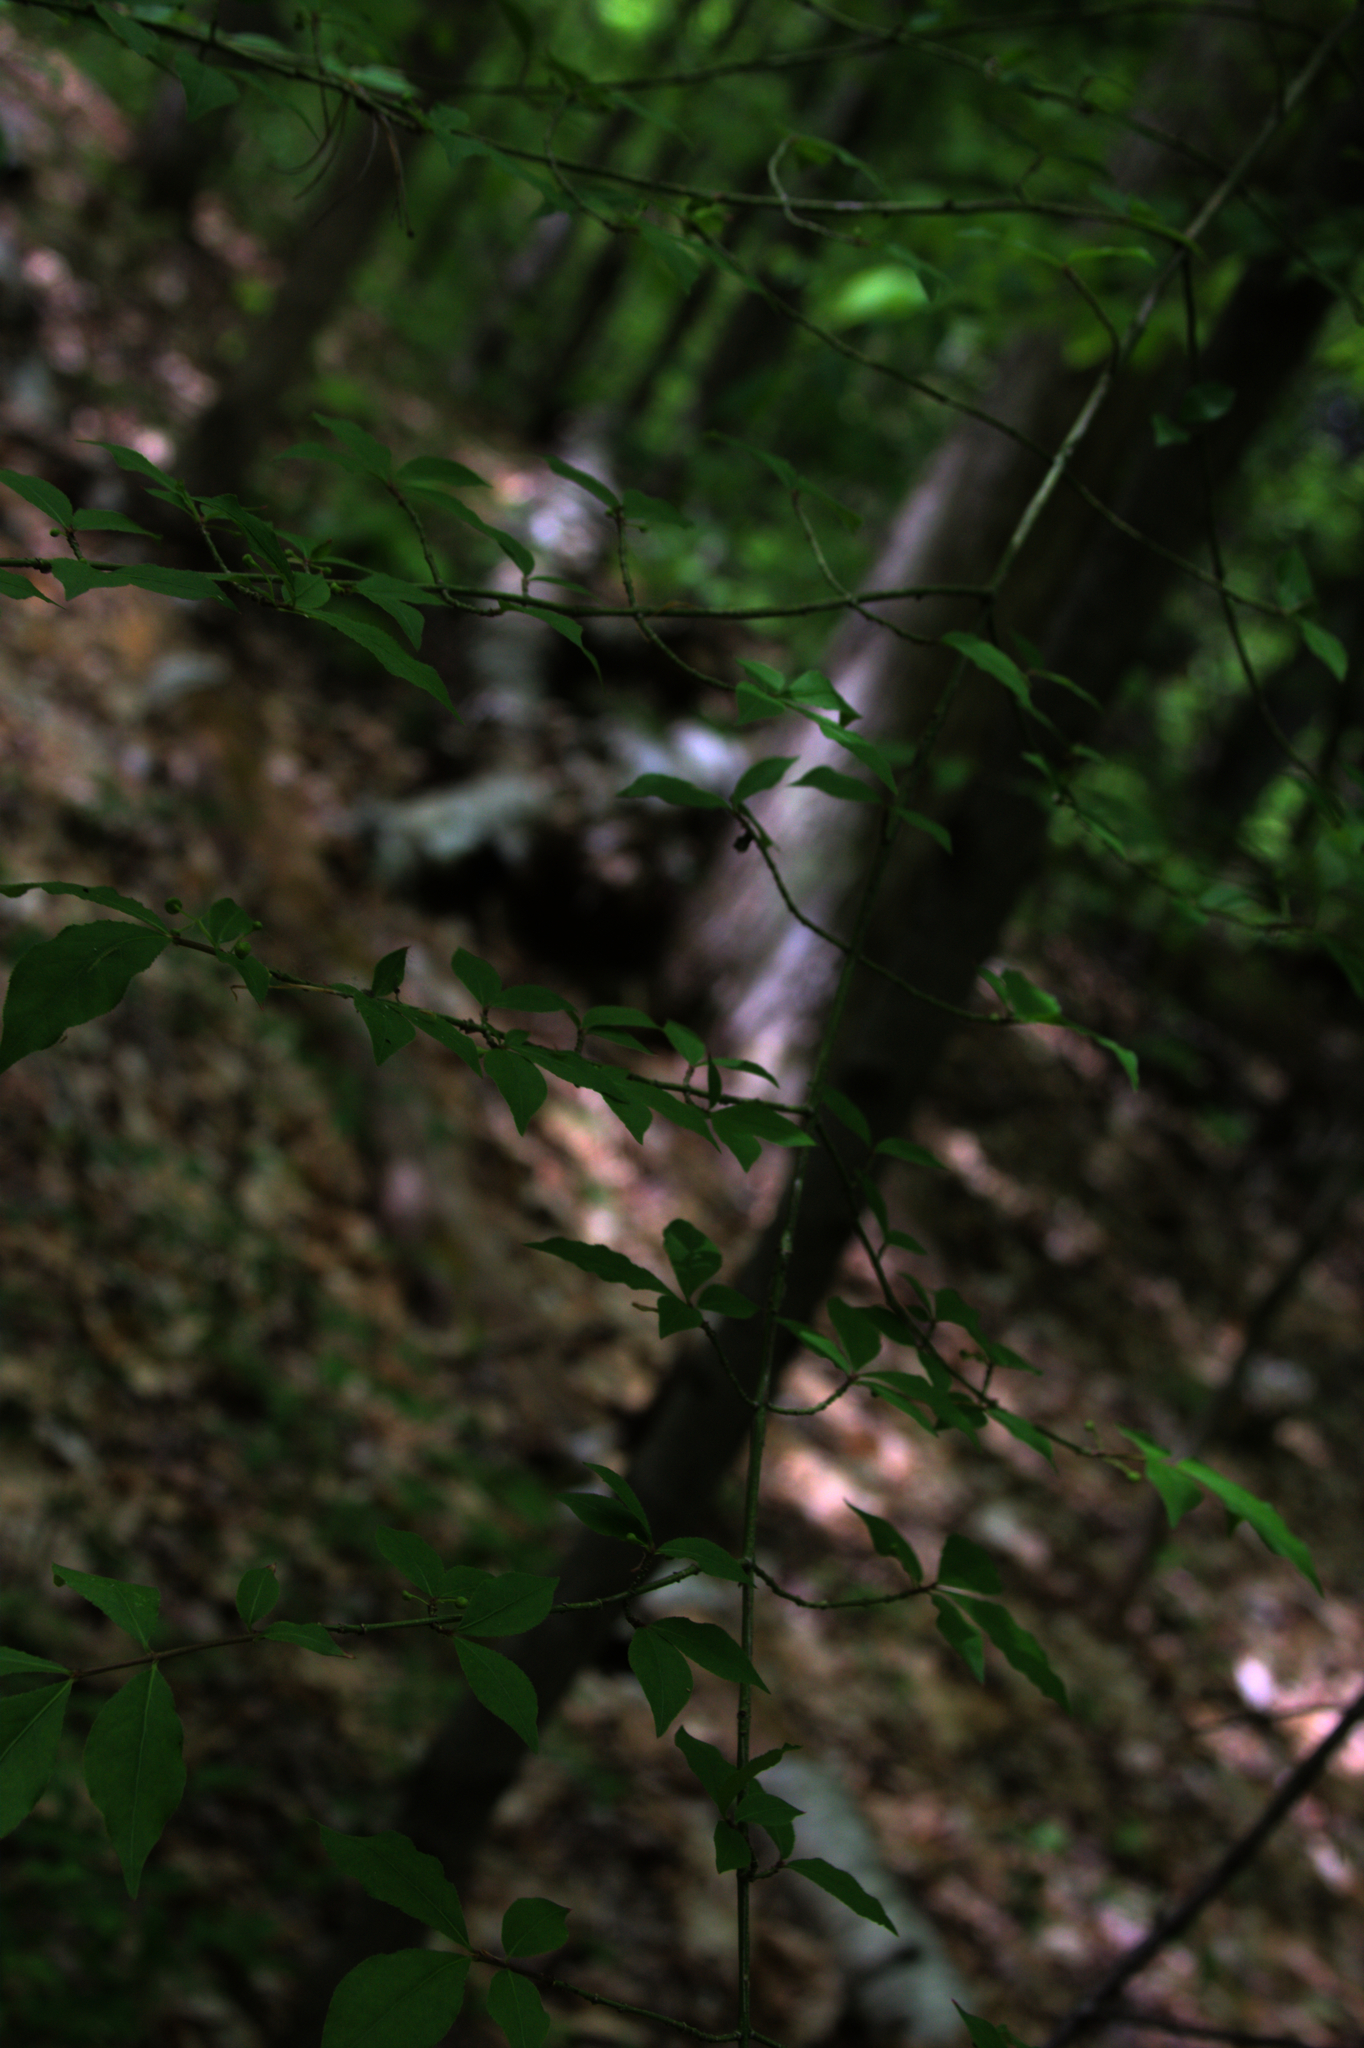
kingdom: Plantae
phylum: Tracheophyta
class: Magnoliopsida
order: Celastrales
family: Celastraceae
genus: Euonymus
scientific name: Euonymus alatus
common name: Winged euonymus
